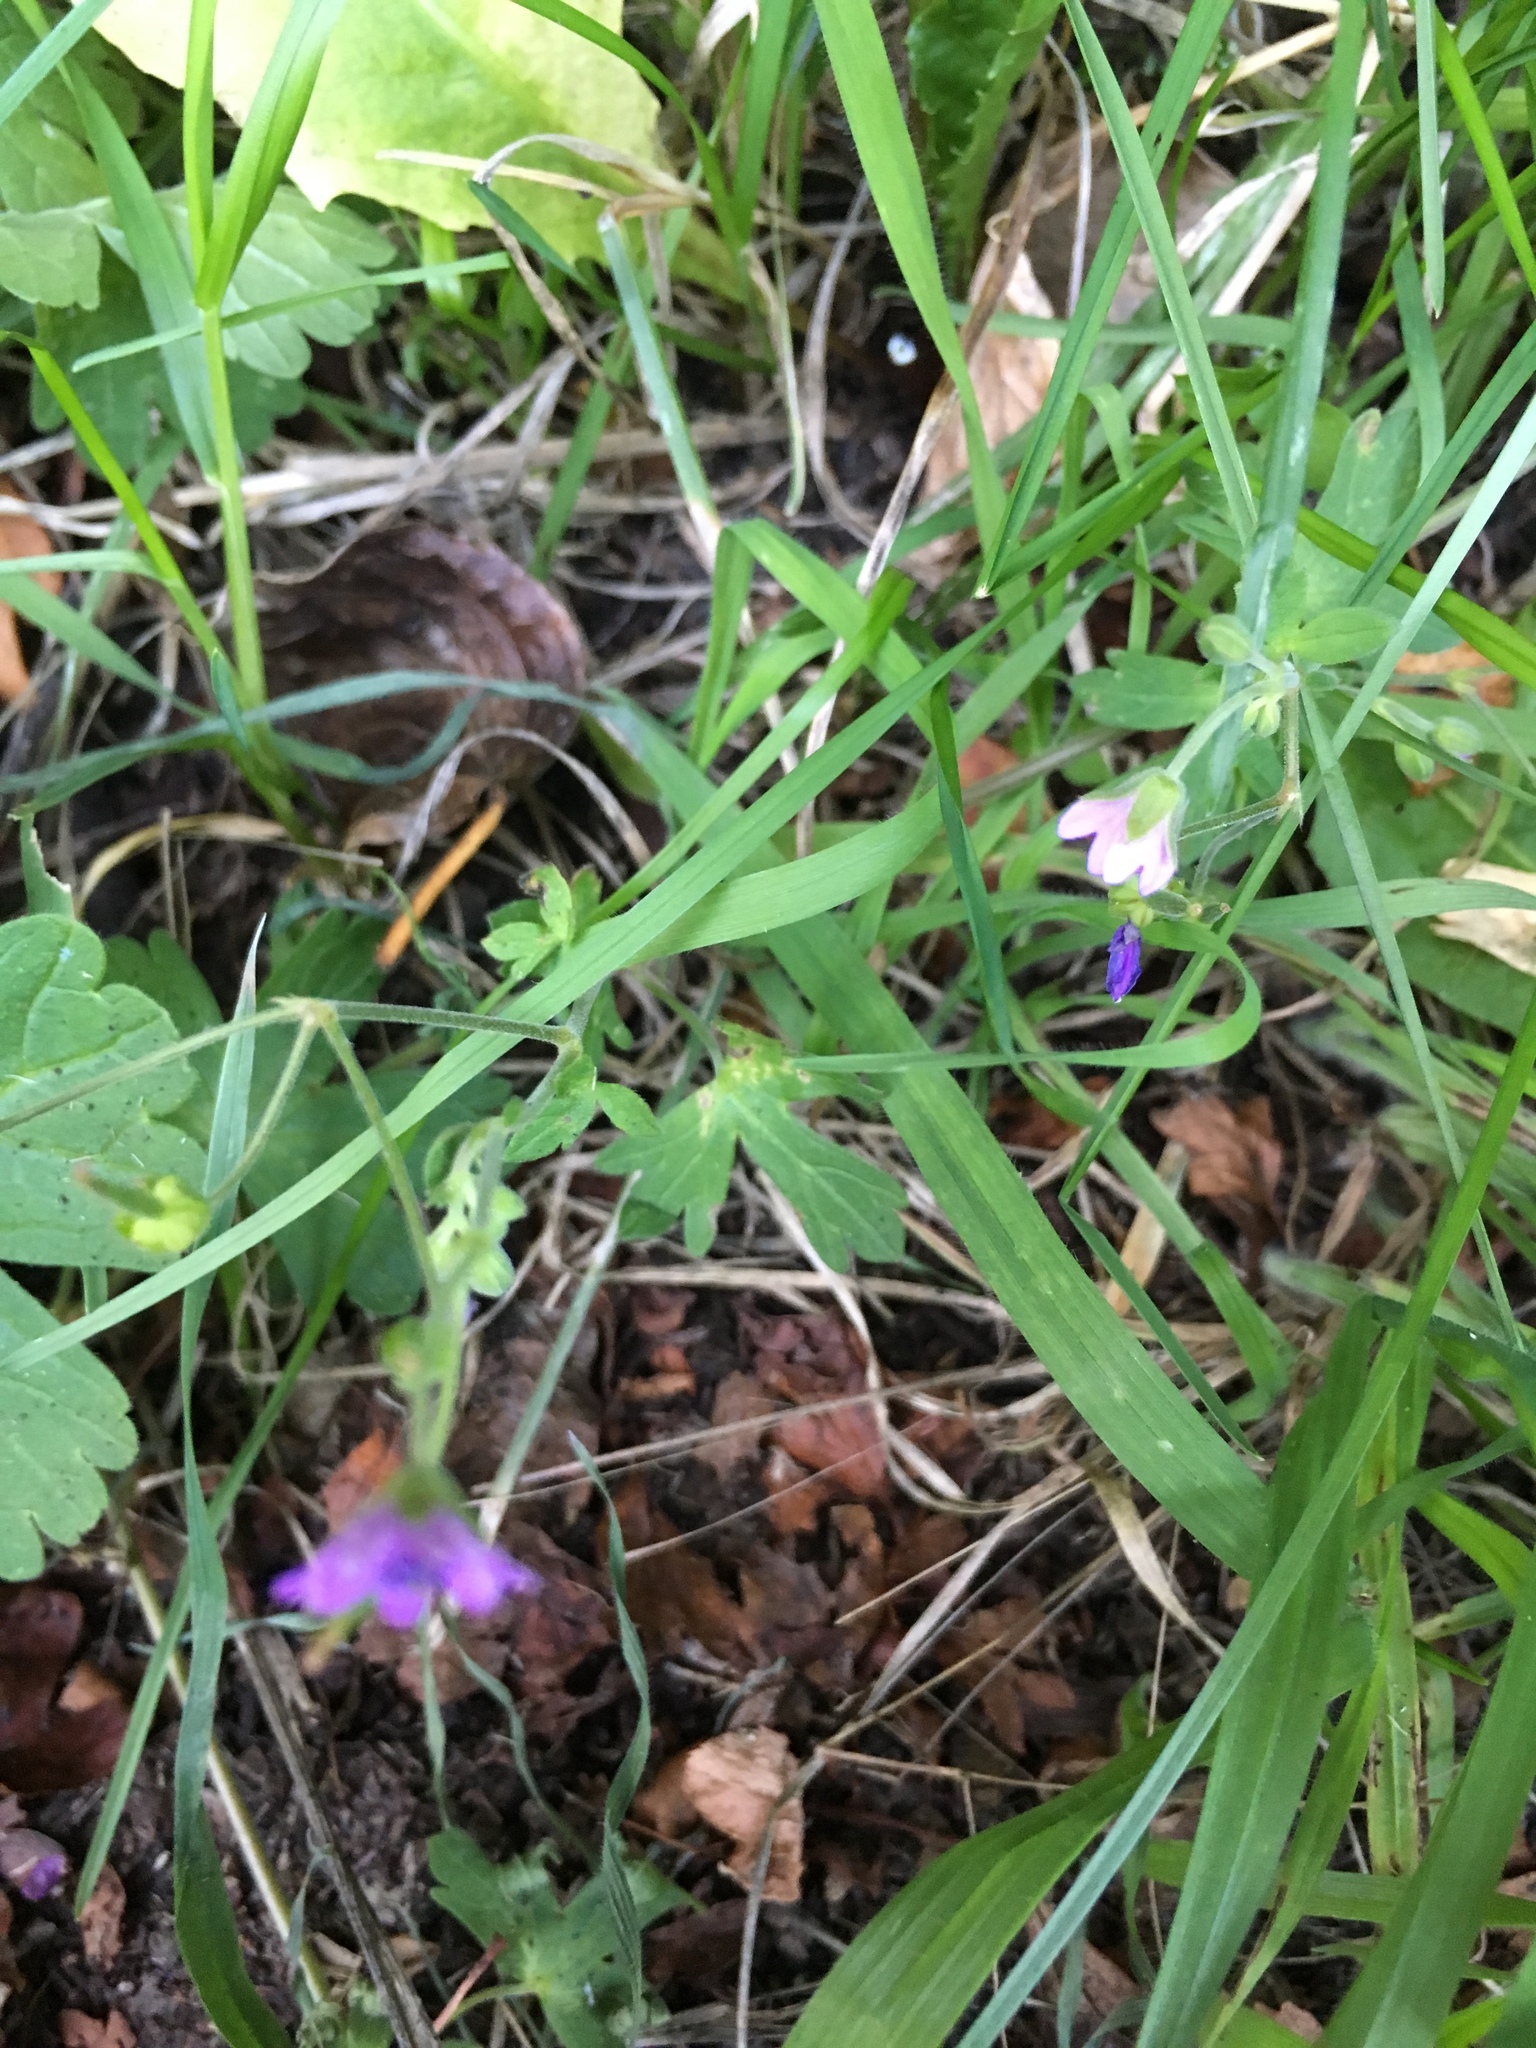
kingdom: Plantae
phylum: Tracheophyta
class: Magnoliopsida
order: Geraniales
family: Geraniaceae
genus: Geranium
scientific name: Geranium pyrenaicum
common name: Hedgerow crane's-bill
